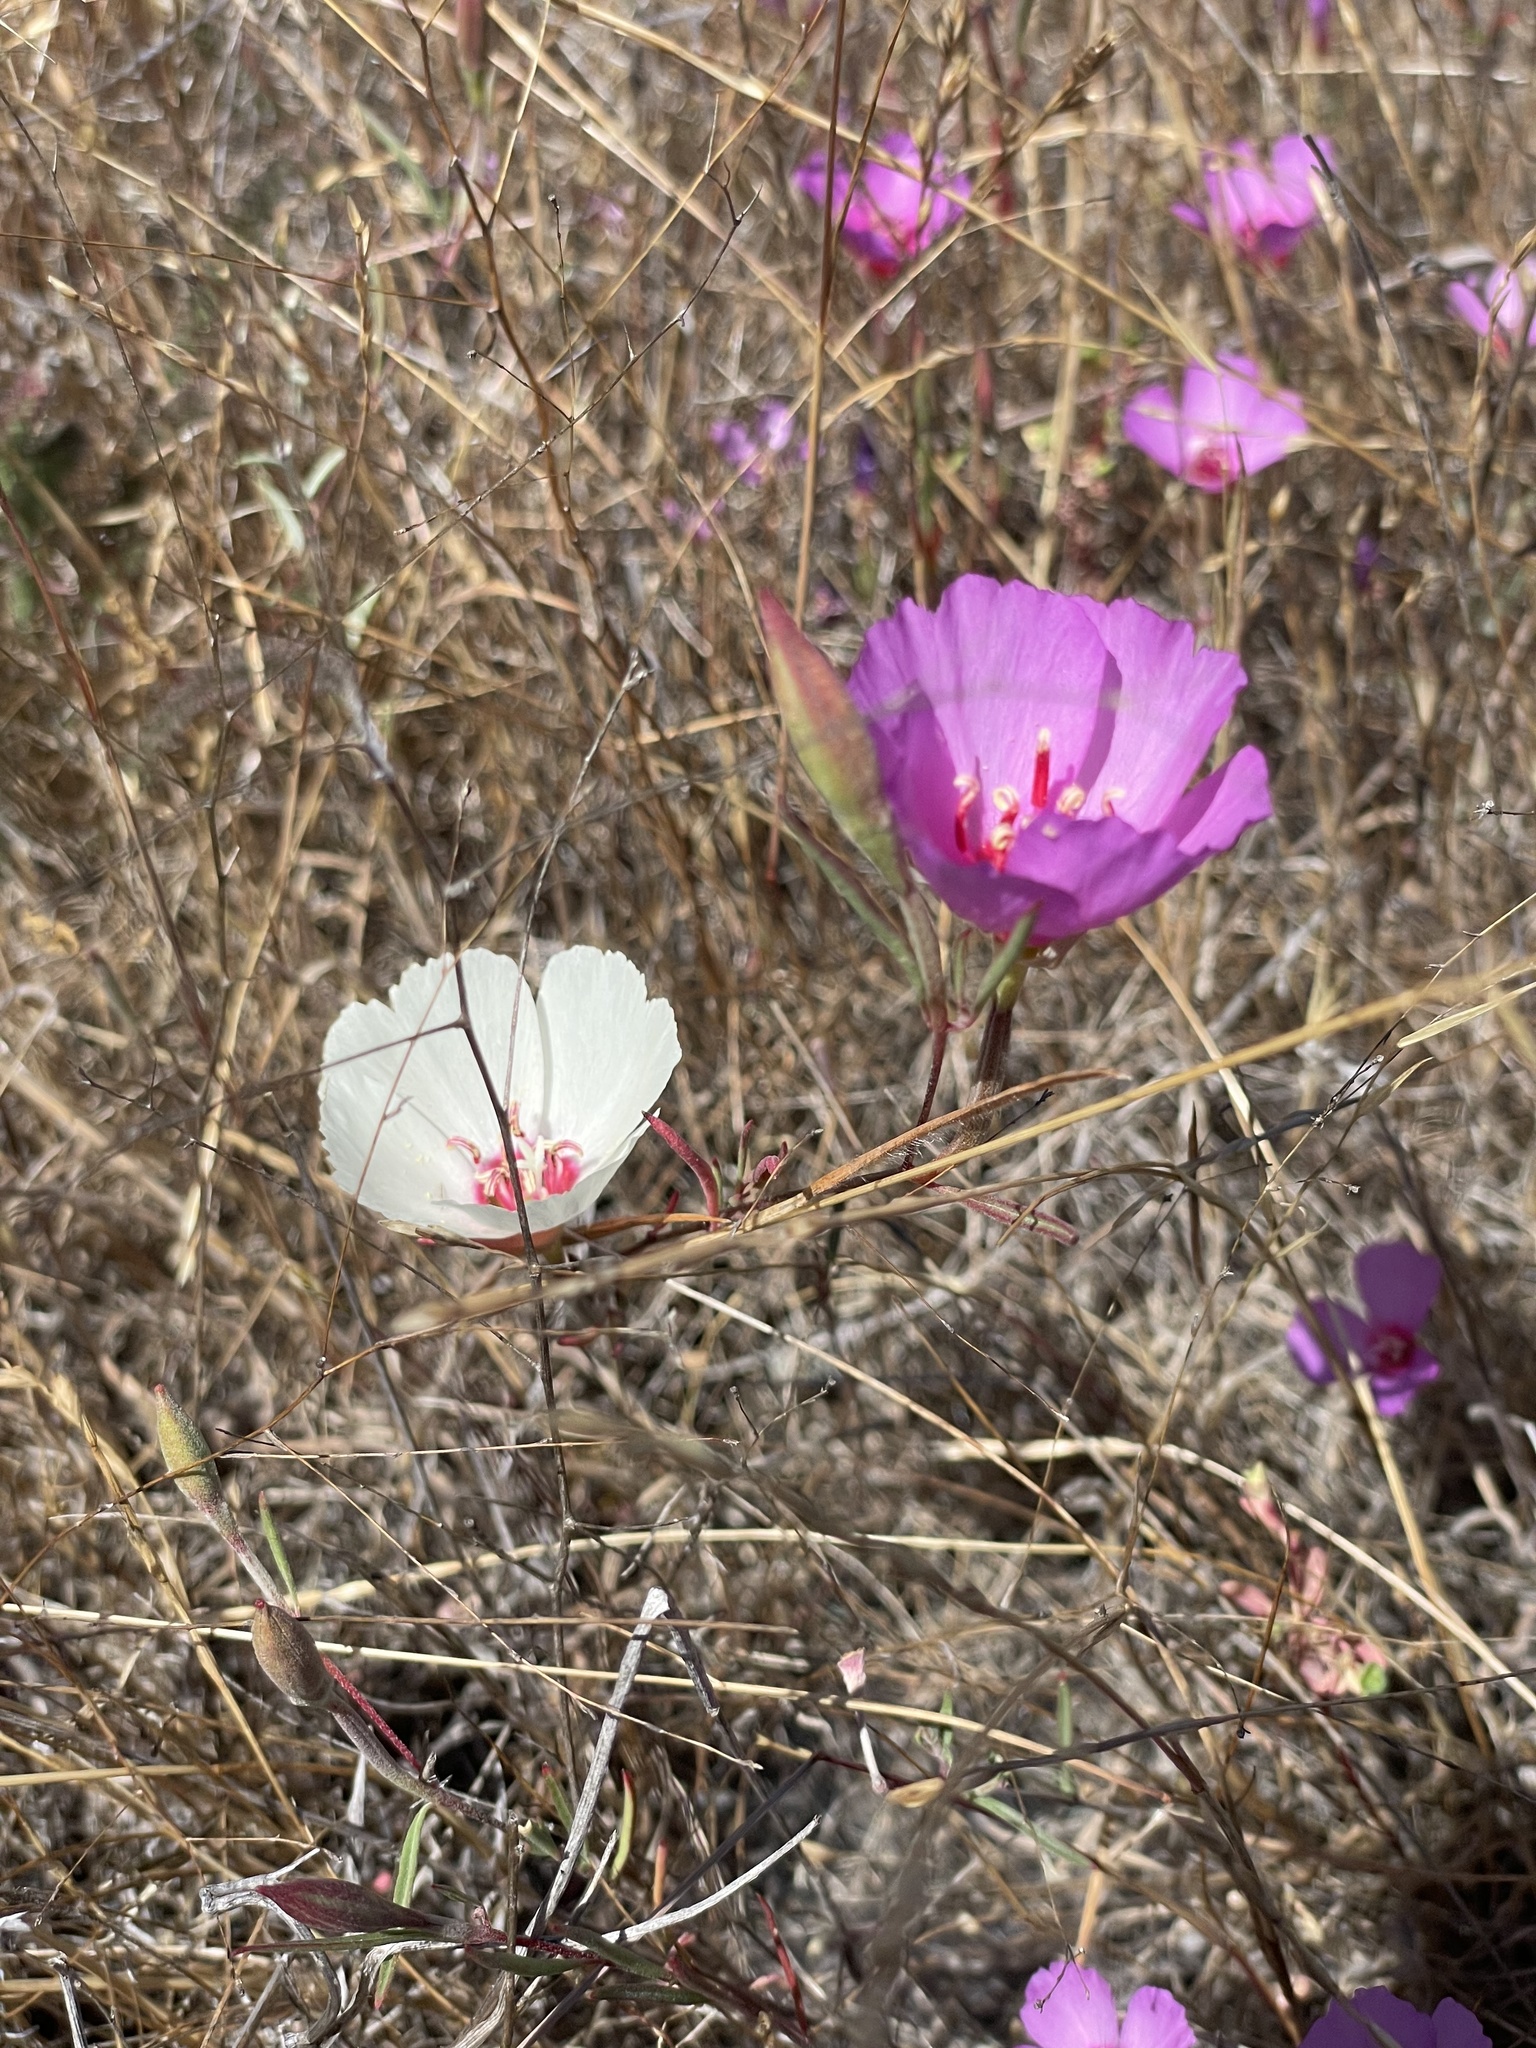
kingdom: Plantae
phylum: Tracheophyta
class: Magnoliopsida
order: Myrtales
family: Onagraceae
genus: Clarkia
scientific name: Clarkia rubicunda
